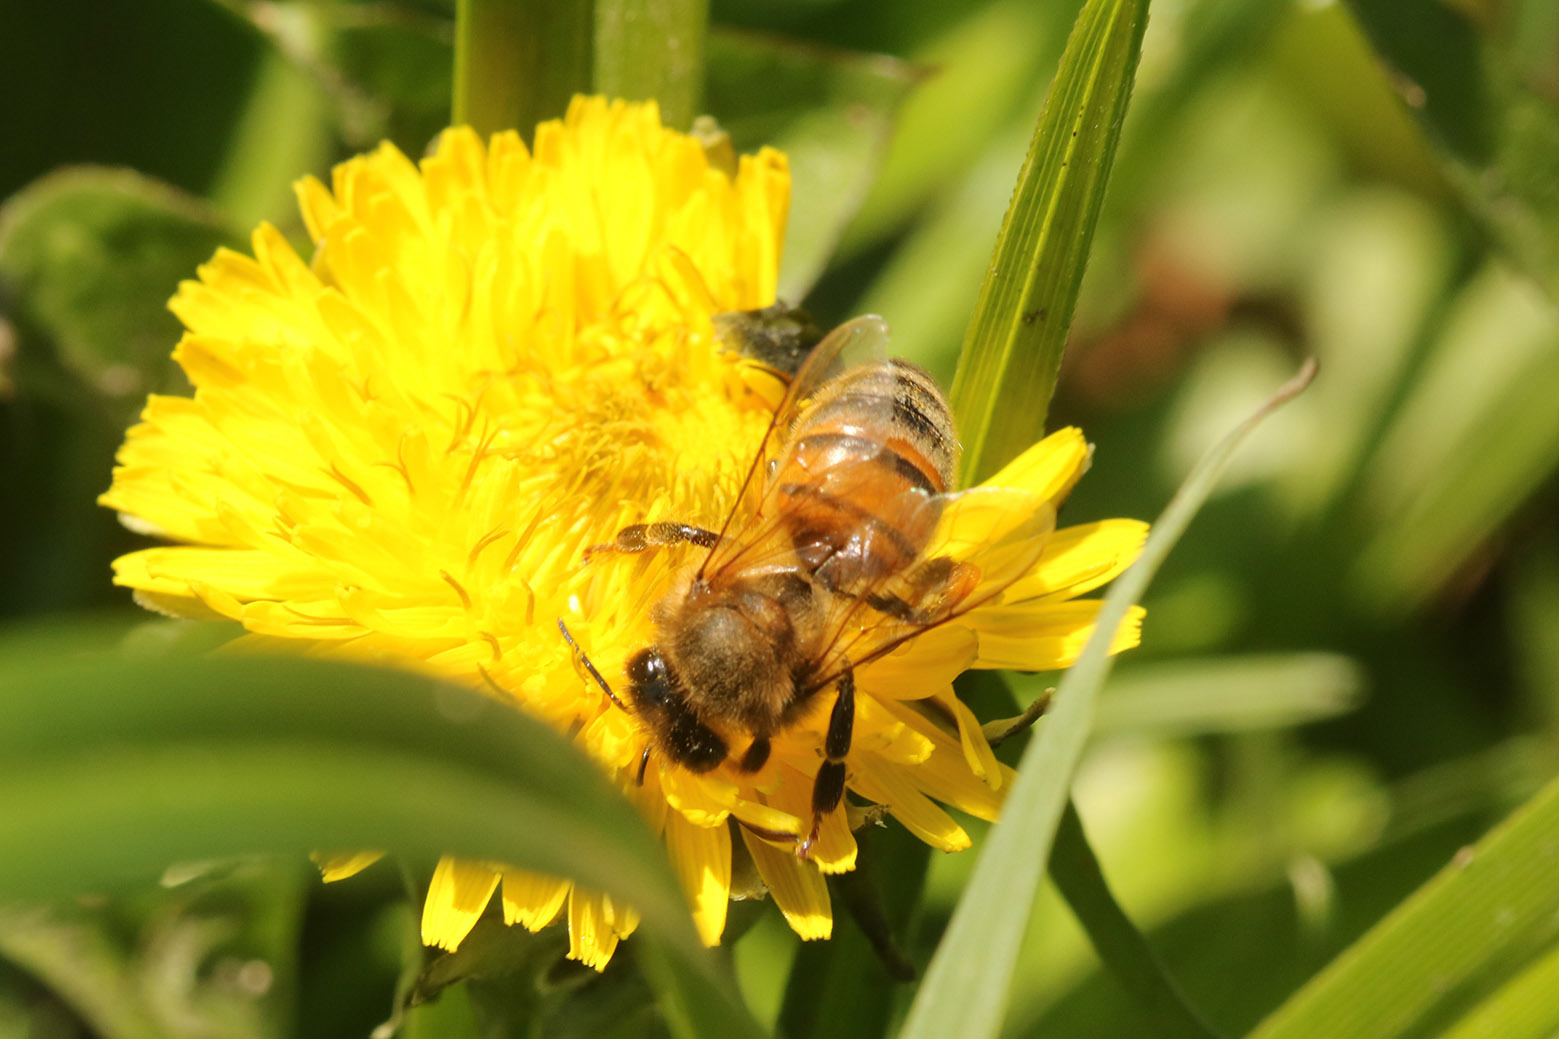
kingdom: Animalia
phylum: Arthropoda
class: Insecta
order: Hymenoptera
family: Apidae
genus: Apis
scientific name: Apis mellifera
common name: Honey bee
